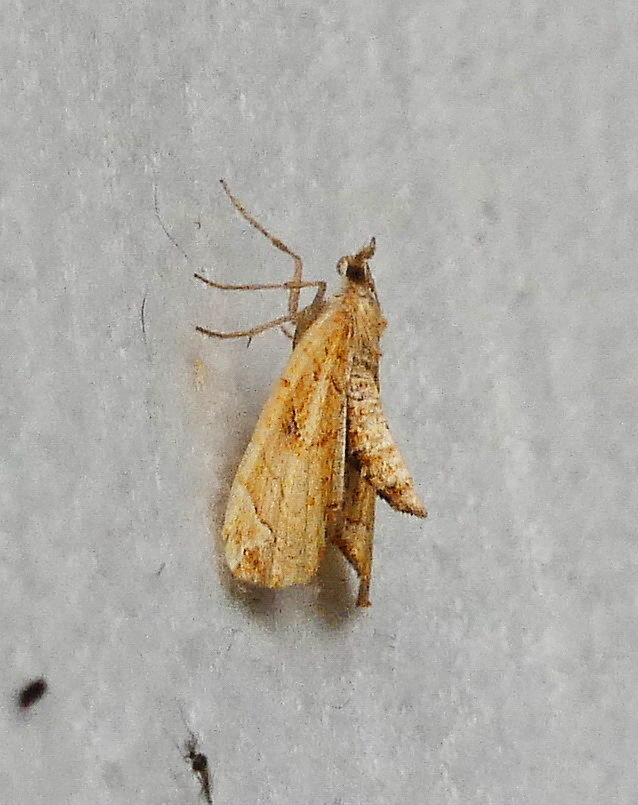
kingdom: Animalia
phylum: Arthropoda
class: Insecta
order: Lepidoptera
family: Geometridae
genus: Eulithis
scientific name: Eulithis testata
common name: Chevron
